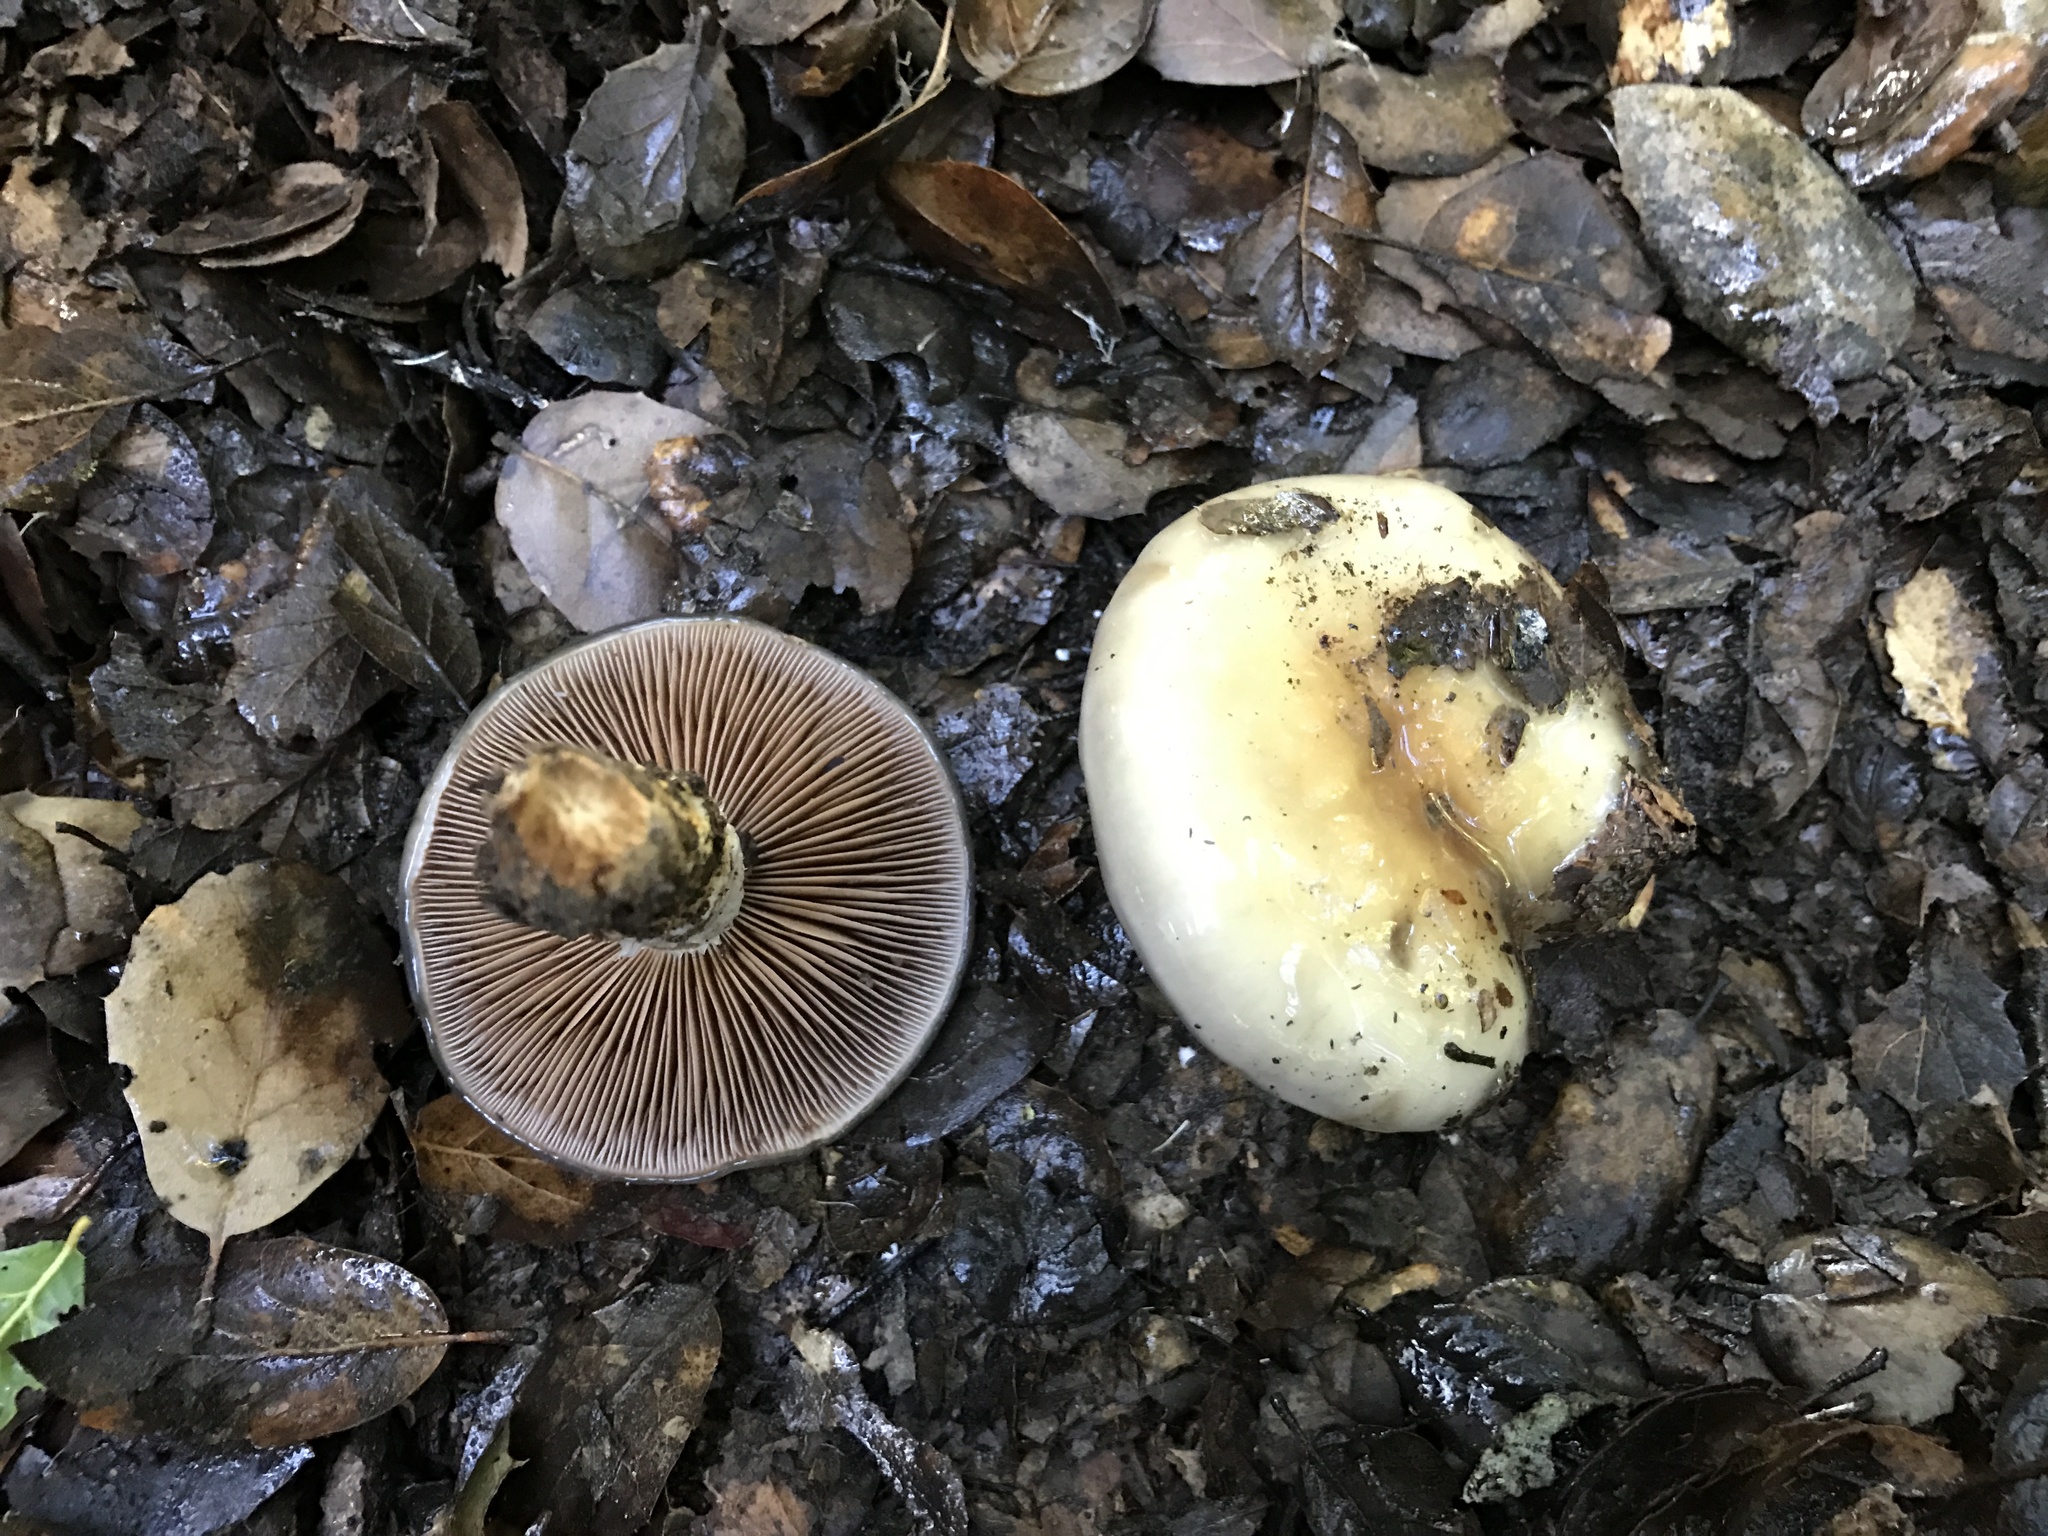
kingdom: Fungi
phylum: Basidiomycota
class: Agaricomycetes
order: Agaricales
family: Cortinariaceae
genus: Cortinarius
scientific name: Cortinarius glutinosoarmillatus
